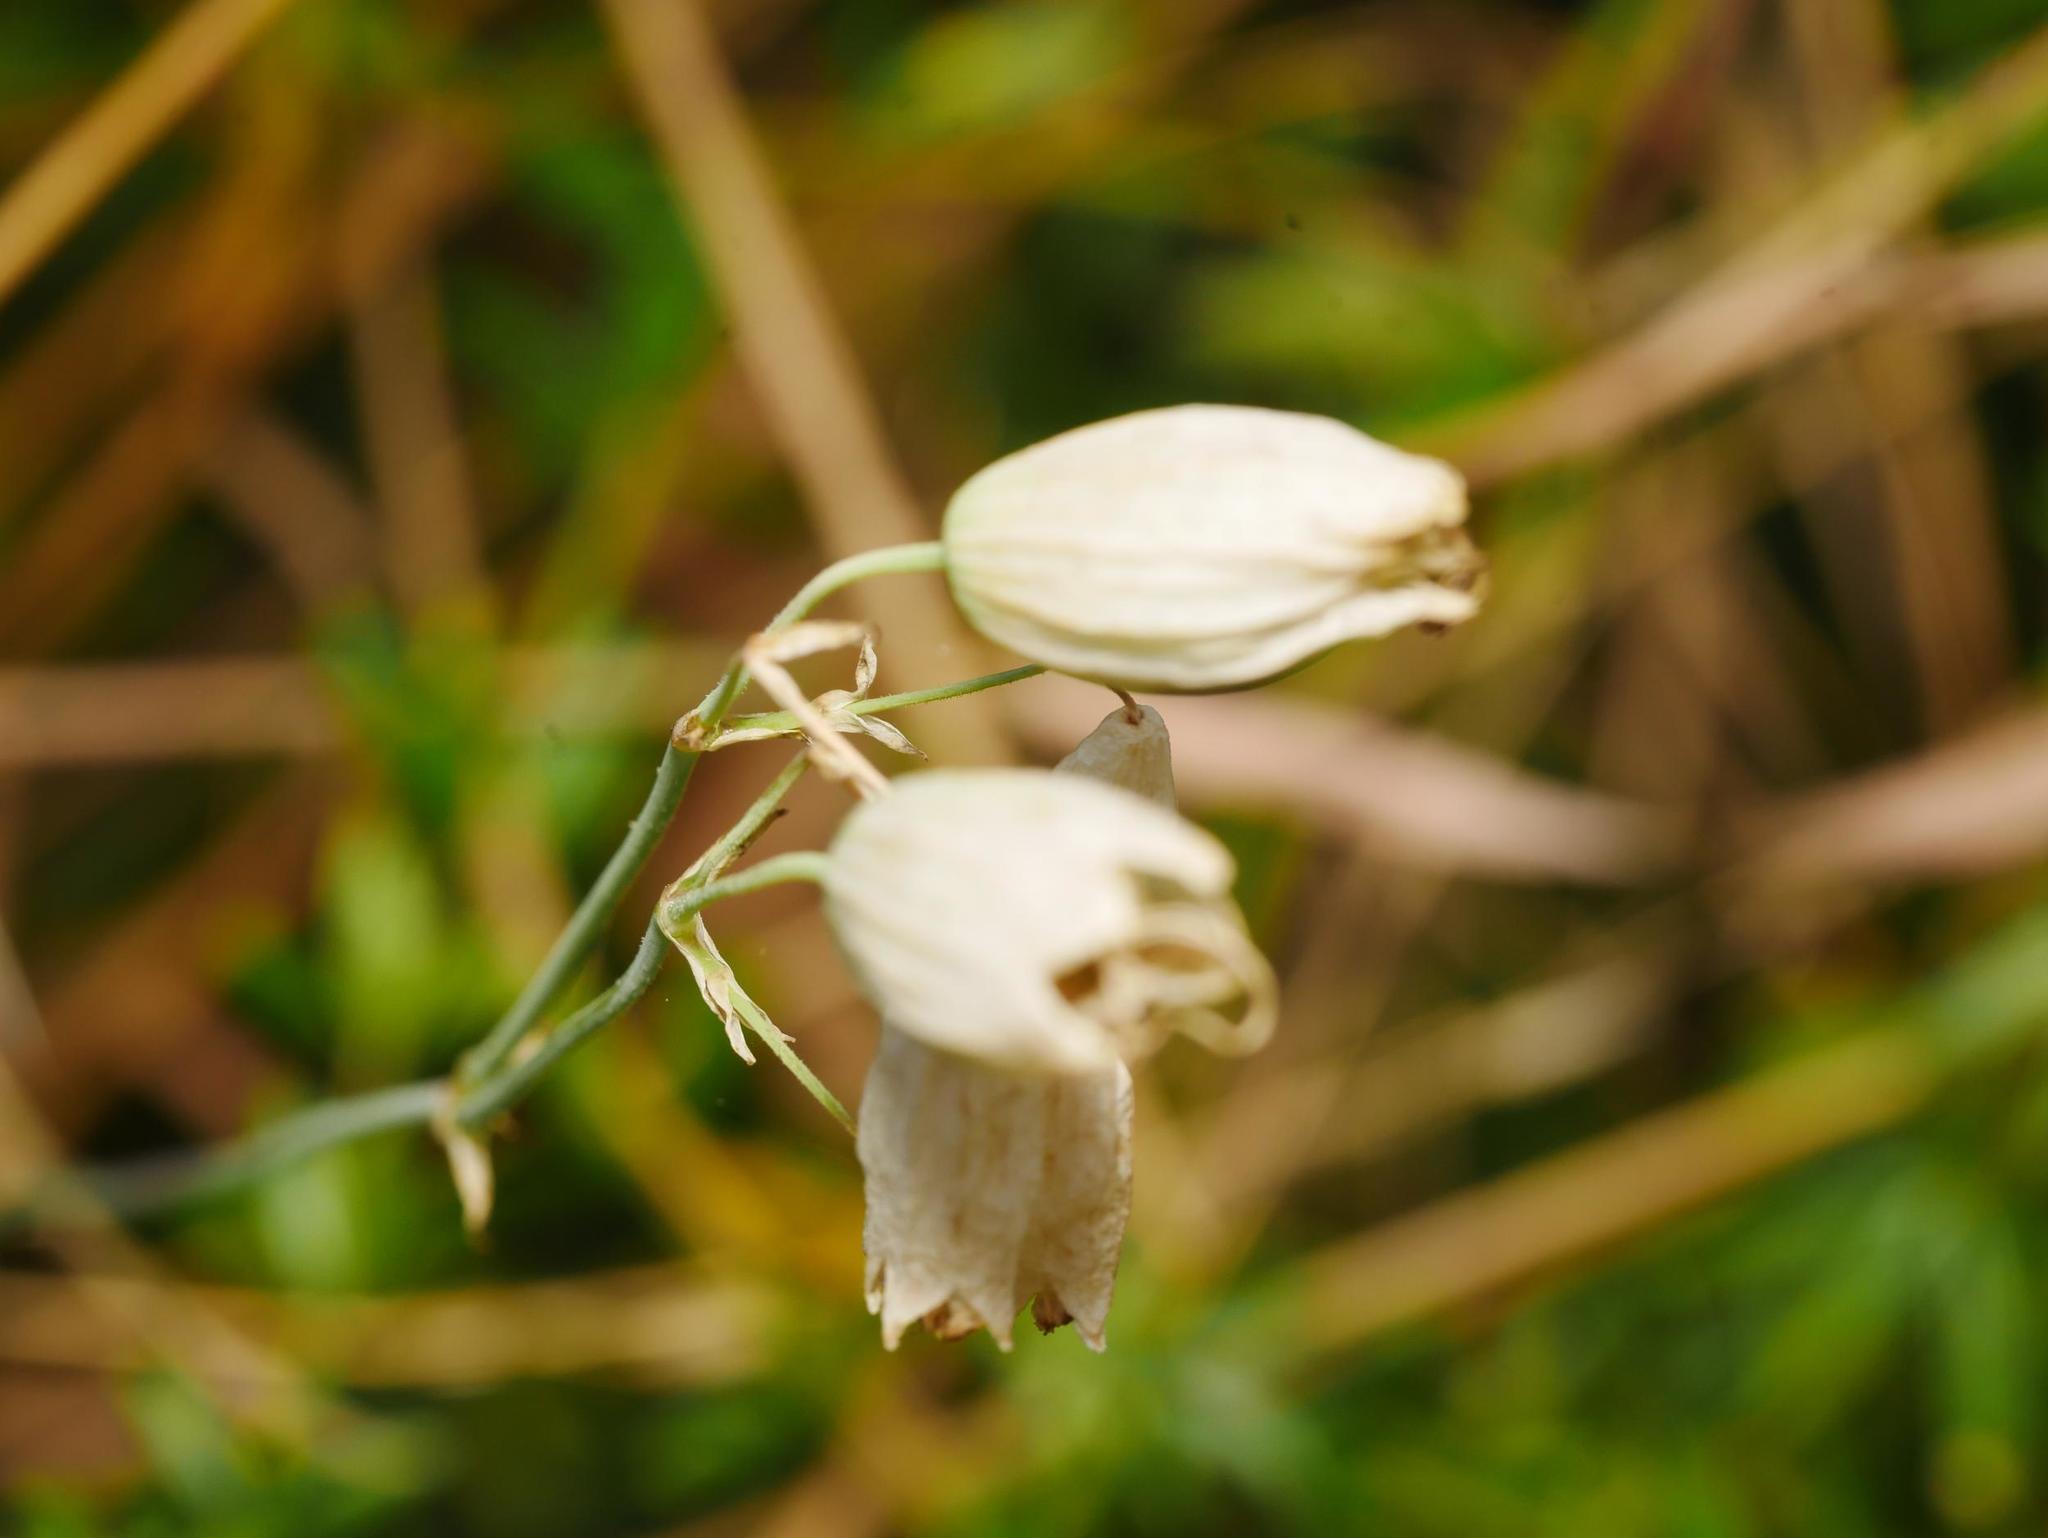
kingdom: Plantae
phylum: Tracheophyta
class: Magnoliopsida
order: Caryophyllales
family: Caryophyllaceae
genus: Silene
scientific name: Silene vulgaris
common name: Bladder campion
